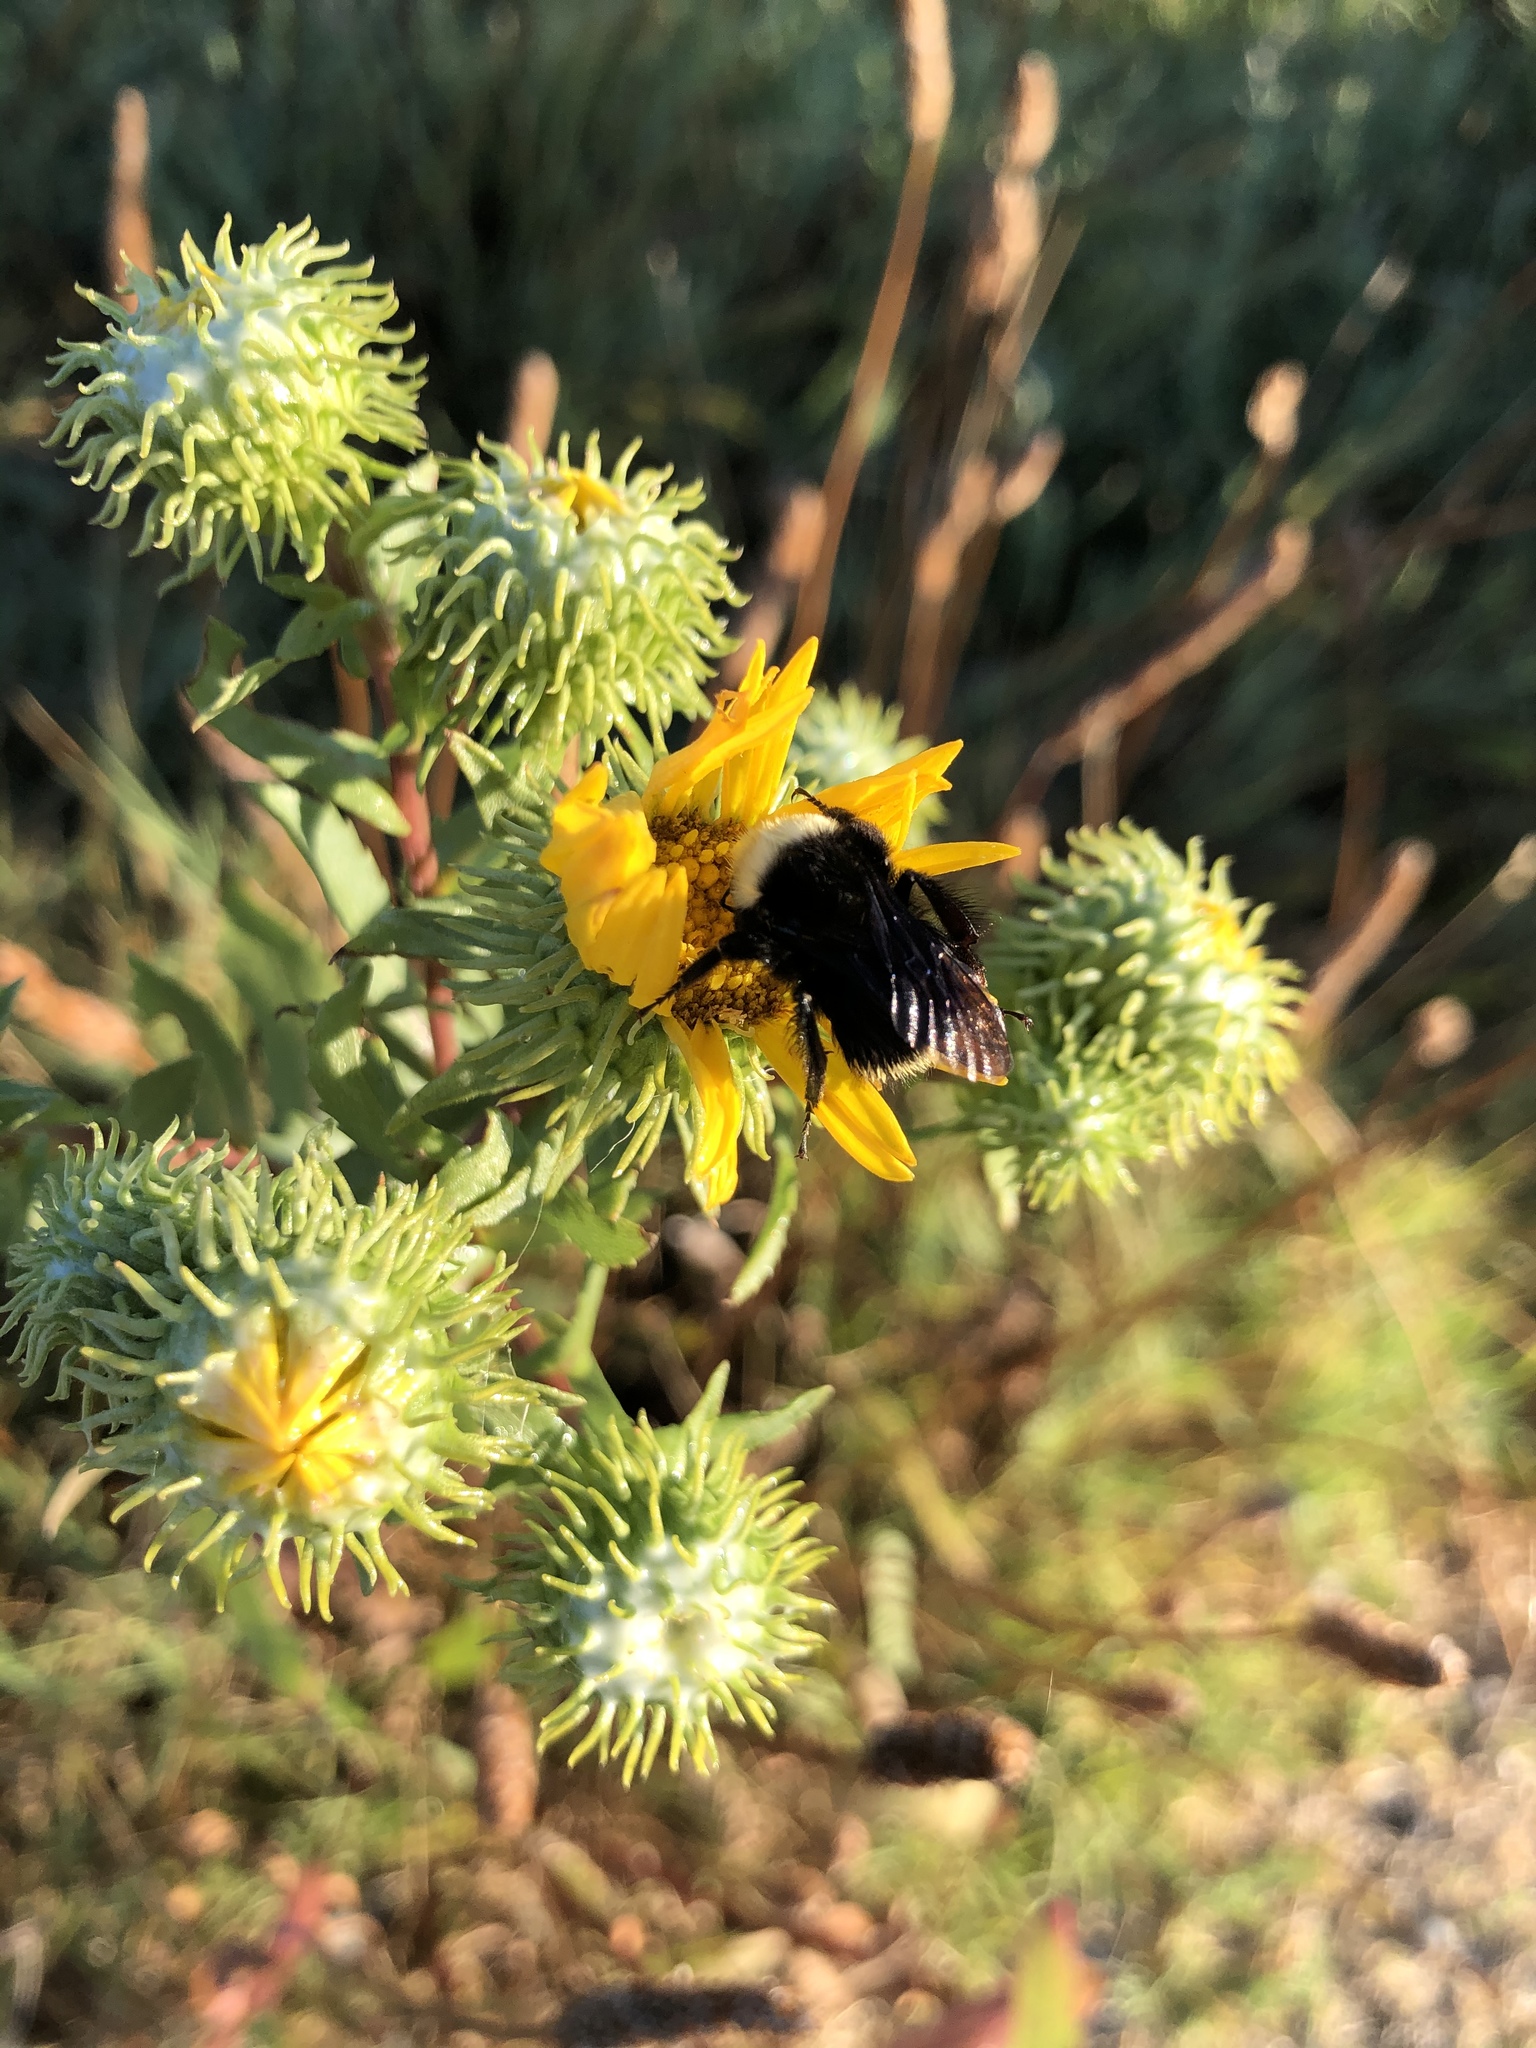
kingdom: Animalia
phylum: Arthropoda
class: Insecta
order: Hymenoptera
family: Apidae
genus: Bombus
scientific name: Bombus vosnesenskii
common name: Vosnesensky bumble bee
